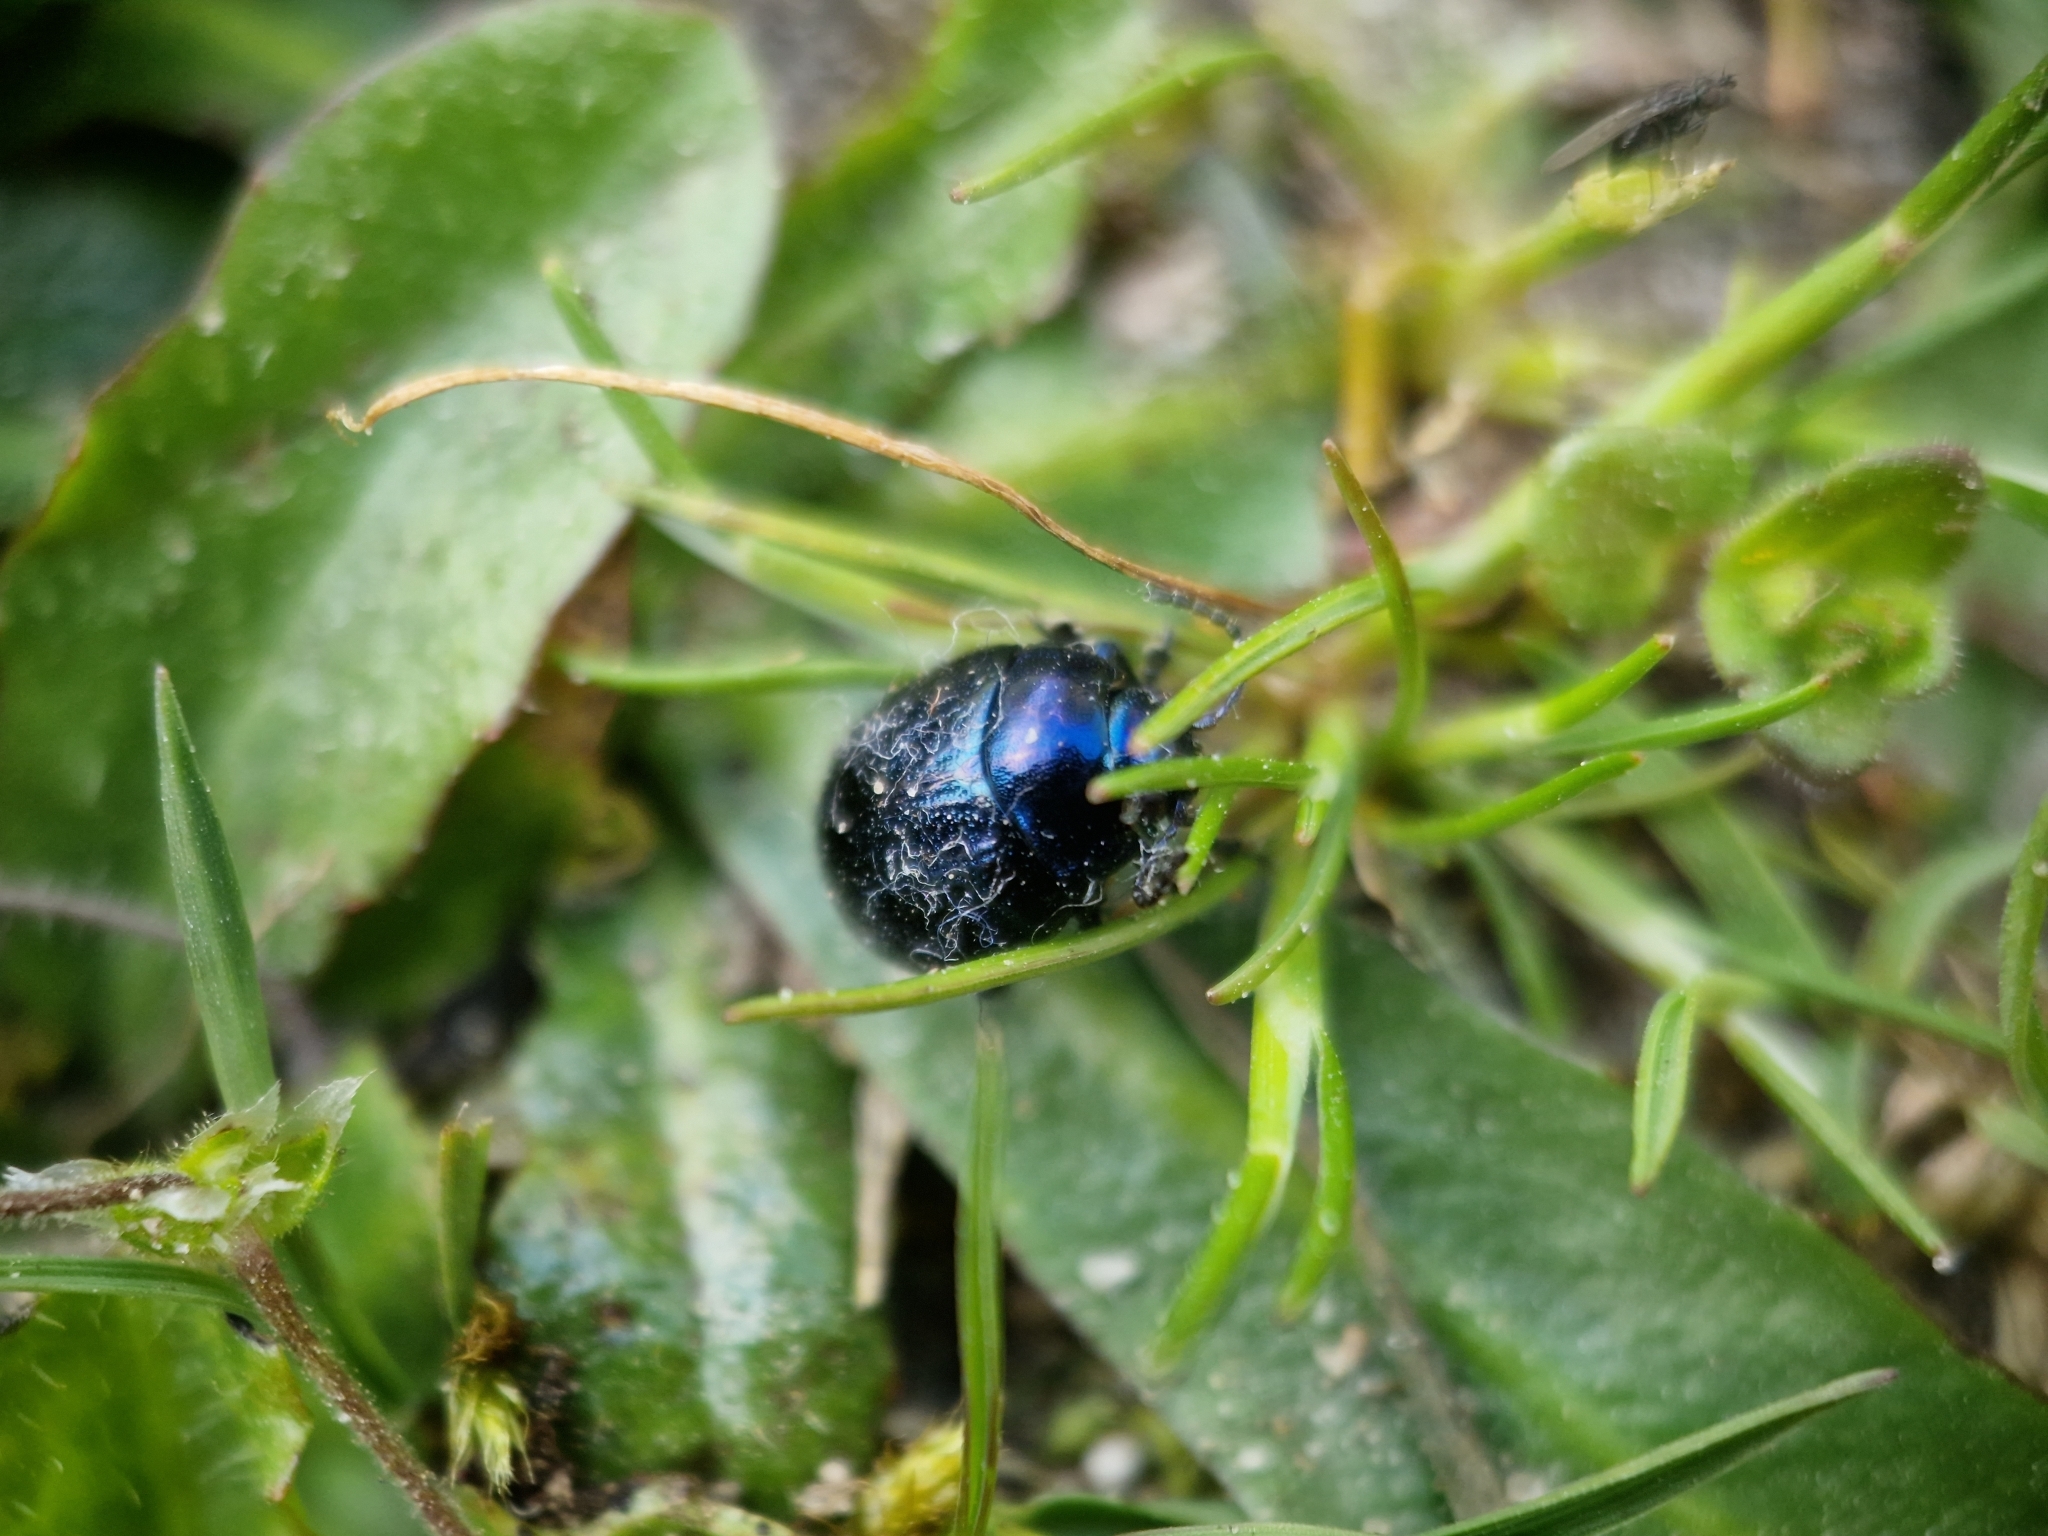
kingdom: Animalia
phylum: Arthropoda
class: Insecta
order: Coleoptera
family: Chrysomelidae
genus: Chrysolina
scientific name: Chrysolina haemoptera
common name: Plantain leaf beetle
